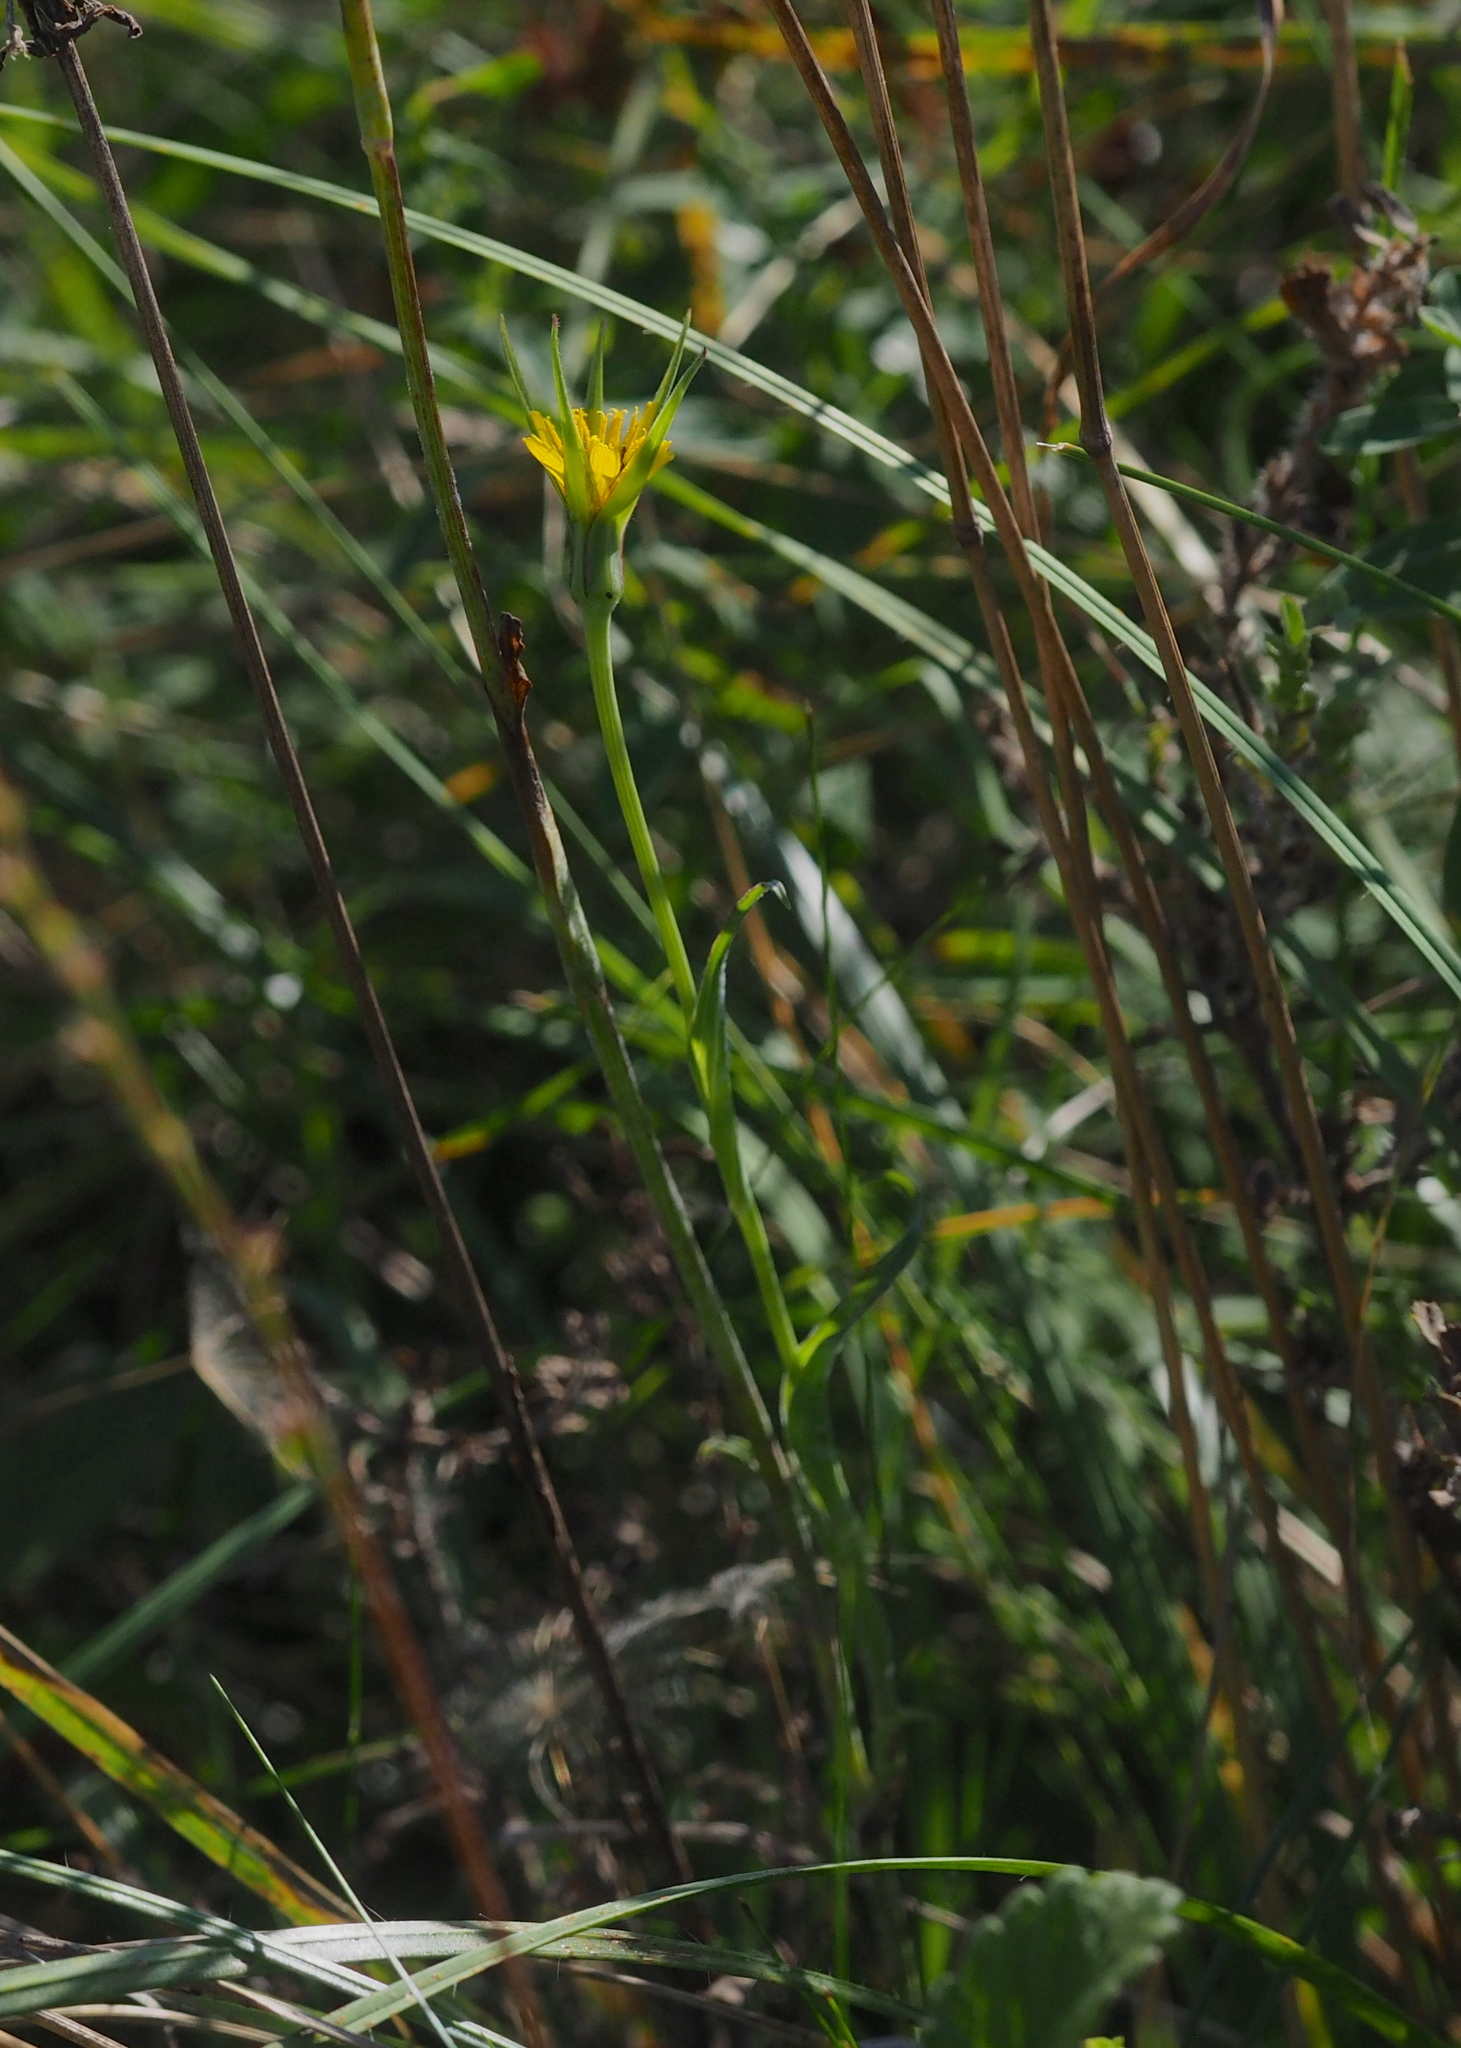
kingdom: Plantae
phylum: Tracheophyta
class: Magnoliopsida
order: Asterales
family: Asteraceae
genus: Tragopogon
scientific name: Tragopogon pratensis
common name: Goat's-beard
